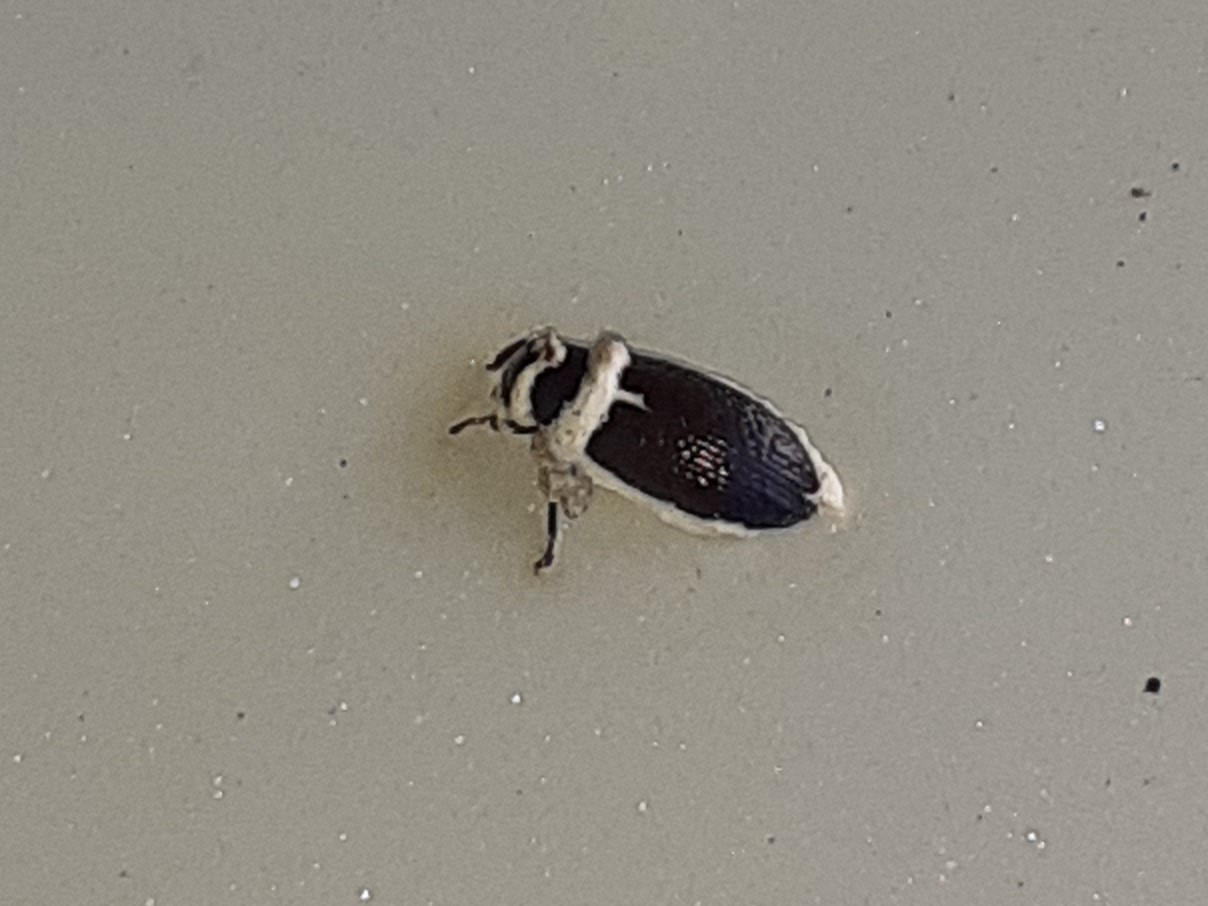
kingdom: Fungi
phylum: Ascomycota
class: Sordariomycetes
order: Hypocreales
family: Cordycipitaceae
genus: Beauveria
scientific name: Beauveria
